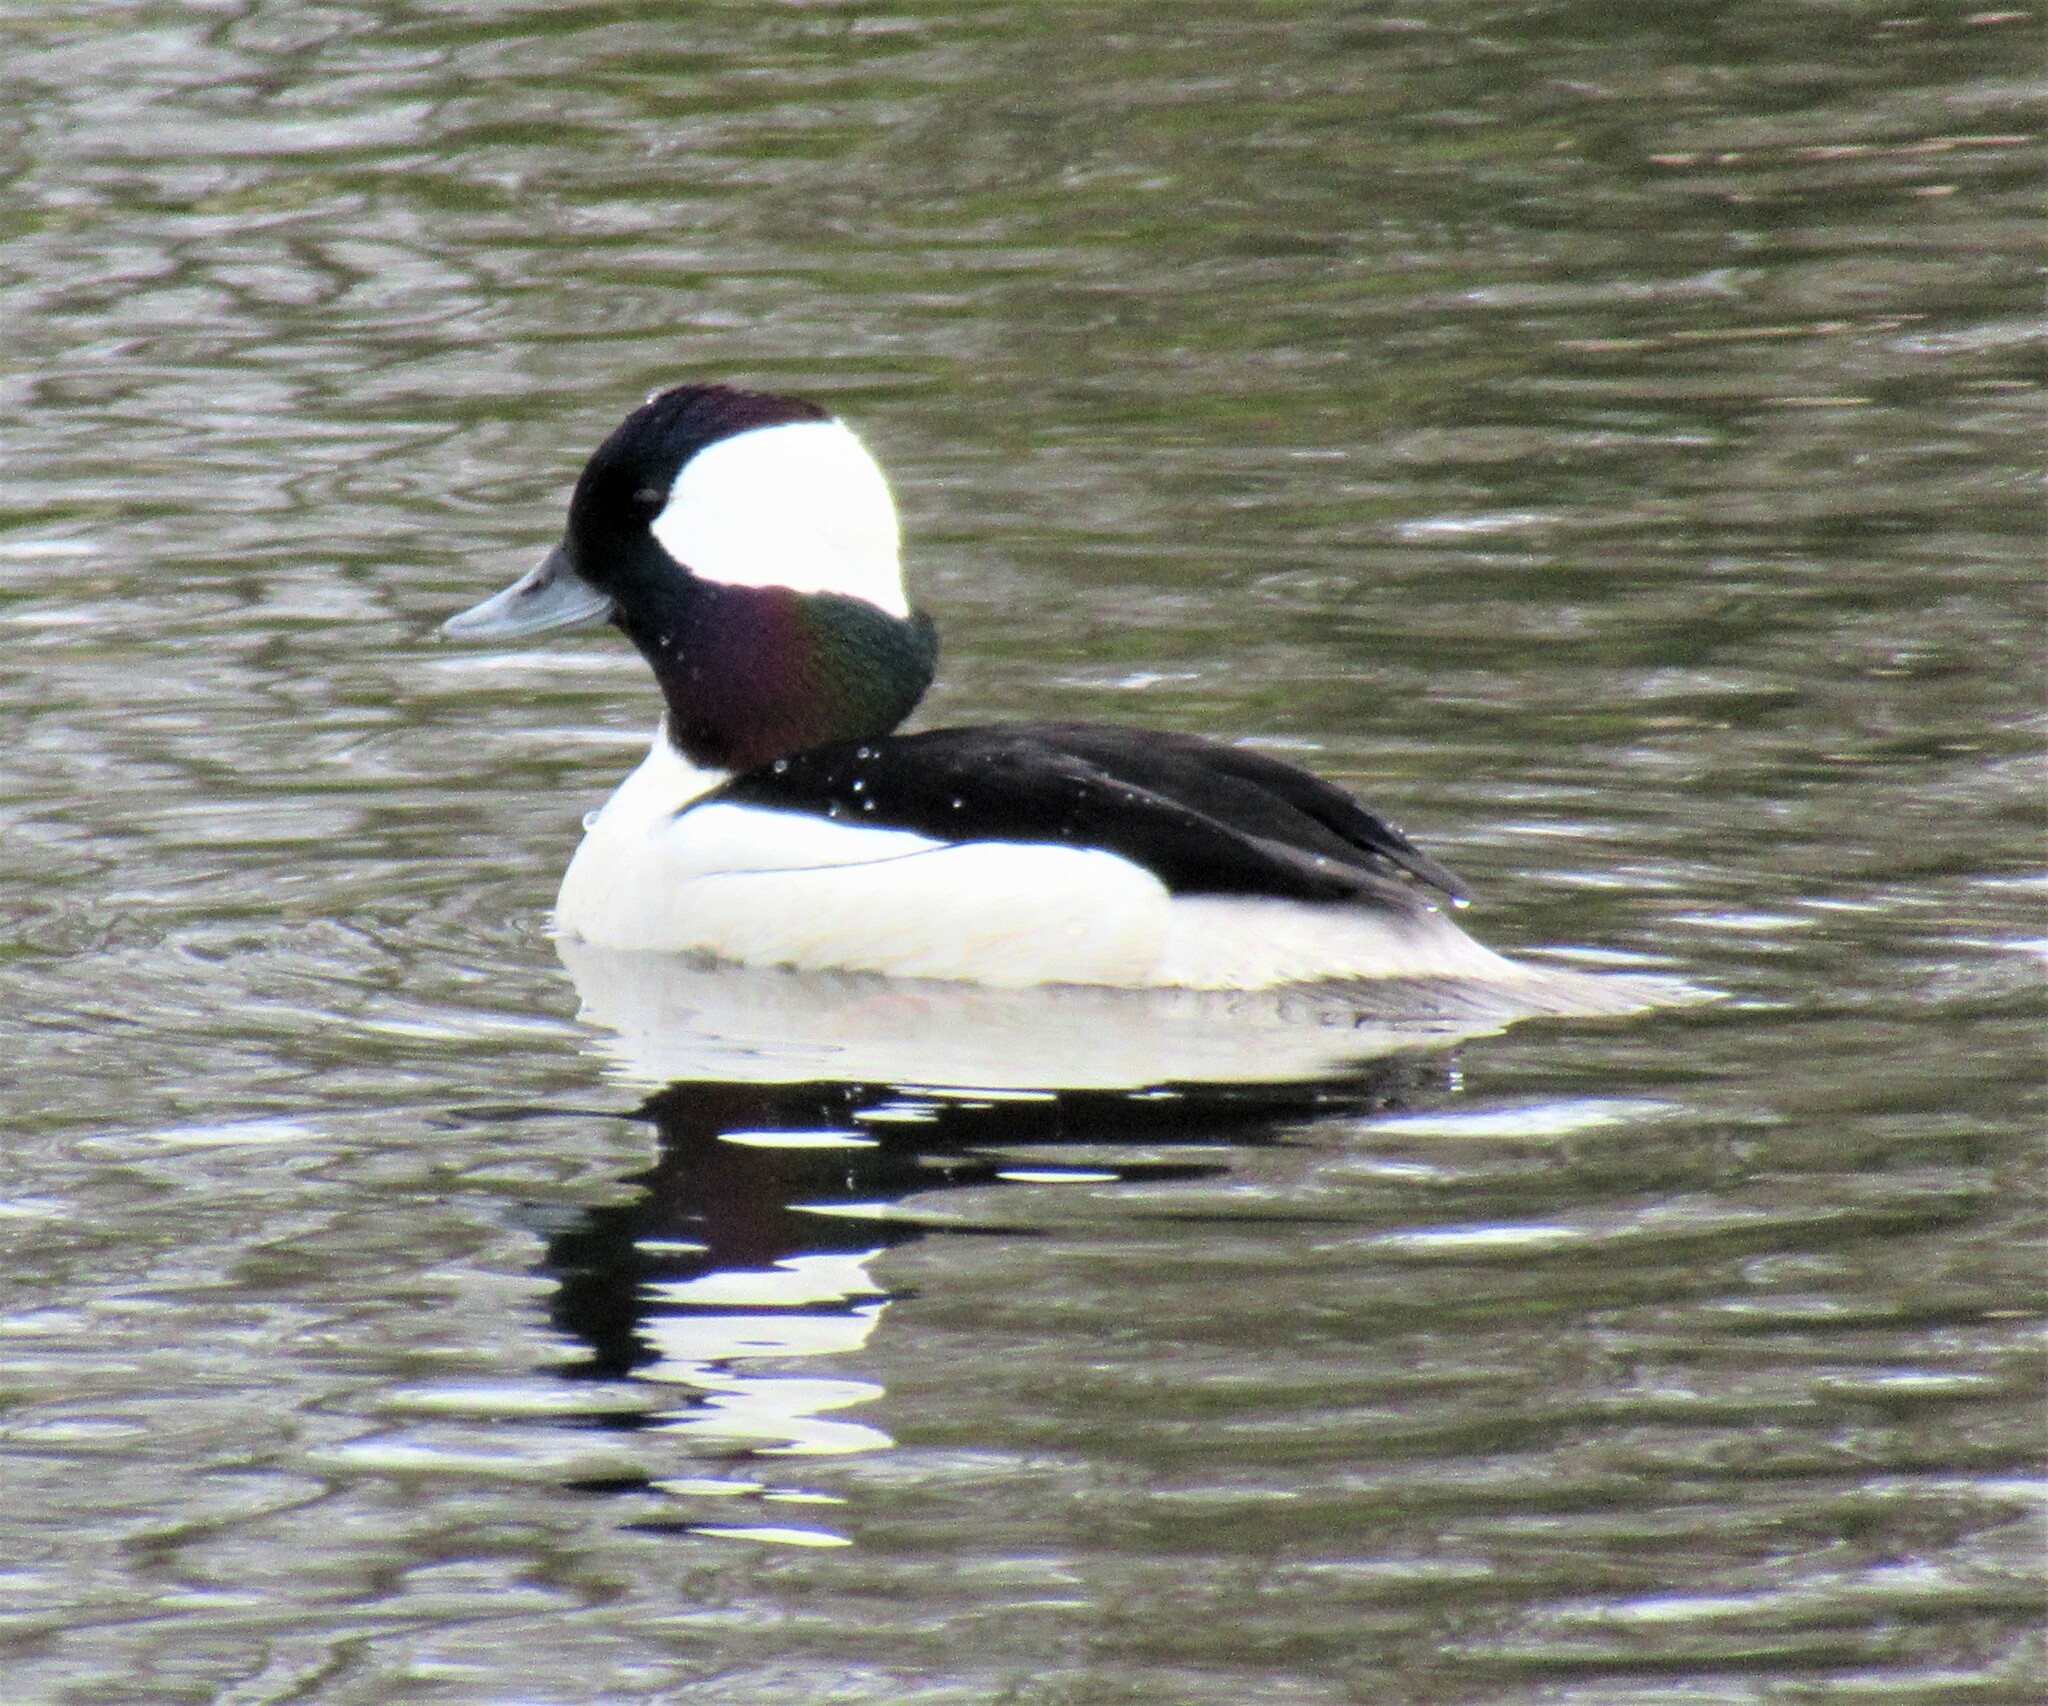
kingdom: Animalia
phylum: Chordata
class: Aves
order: Anseriformes
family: Anatidae
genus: Bucephala
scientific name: Bucephala albeola
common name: Bufflehead
